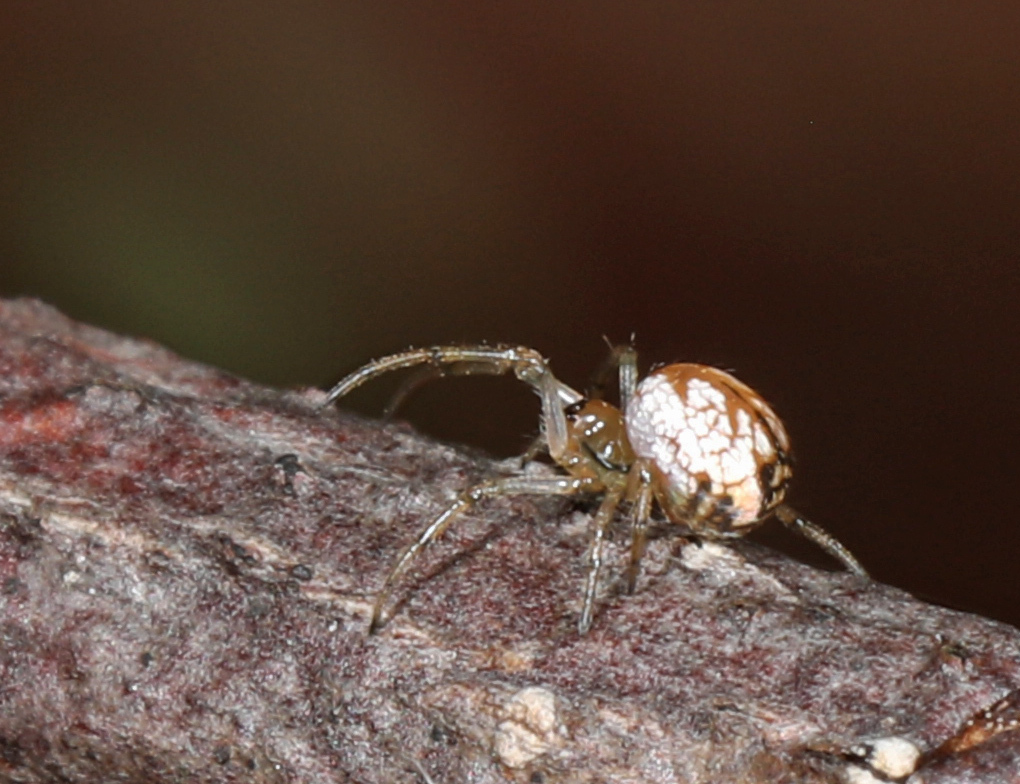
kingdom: Animalia
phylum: Arthropoda
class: Arachnida
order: Araneae
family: Tetragnathidae
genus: Leucauge
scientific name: Leucauge venusta
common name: Longjawed orb weavers
